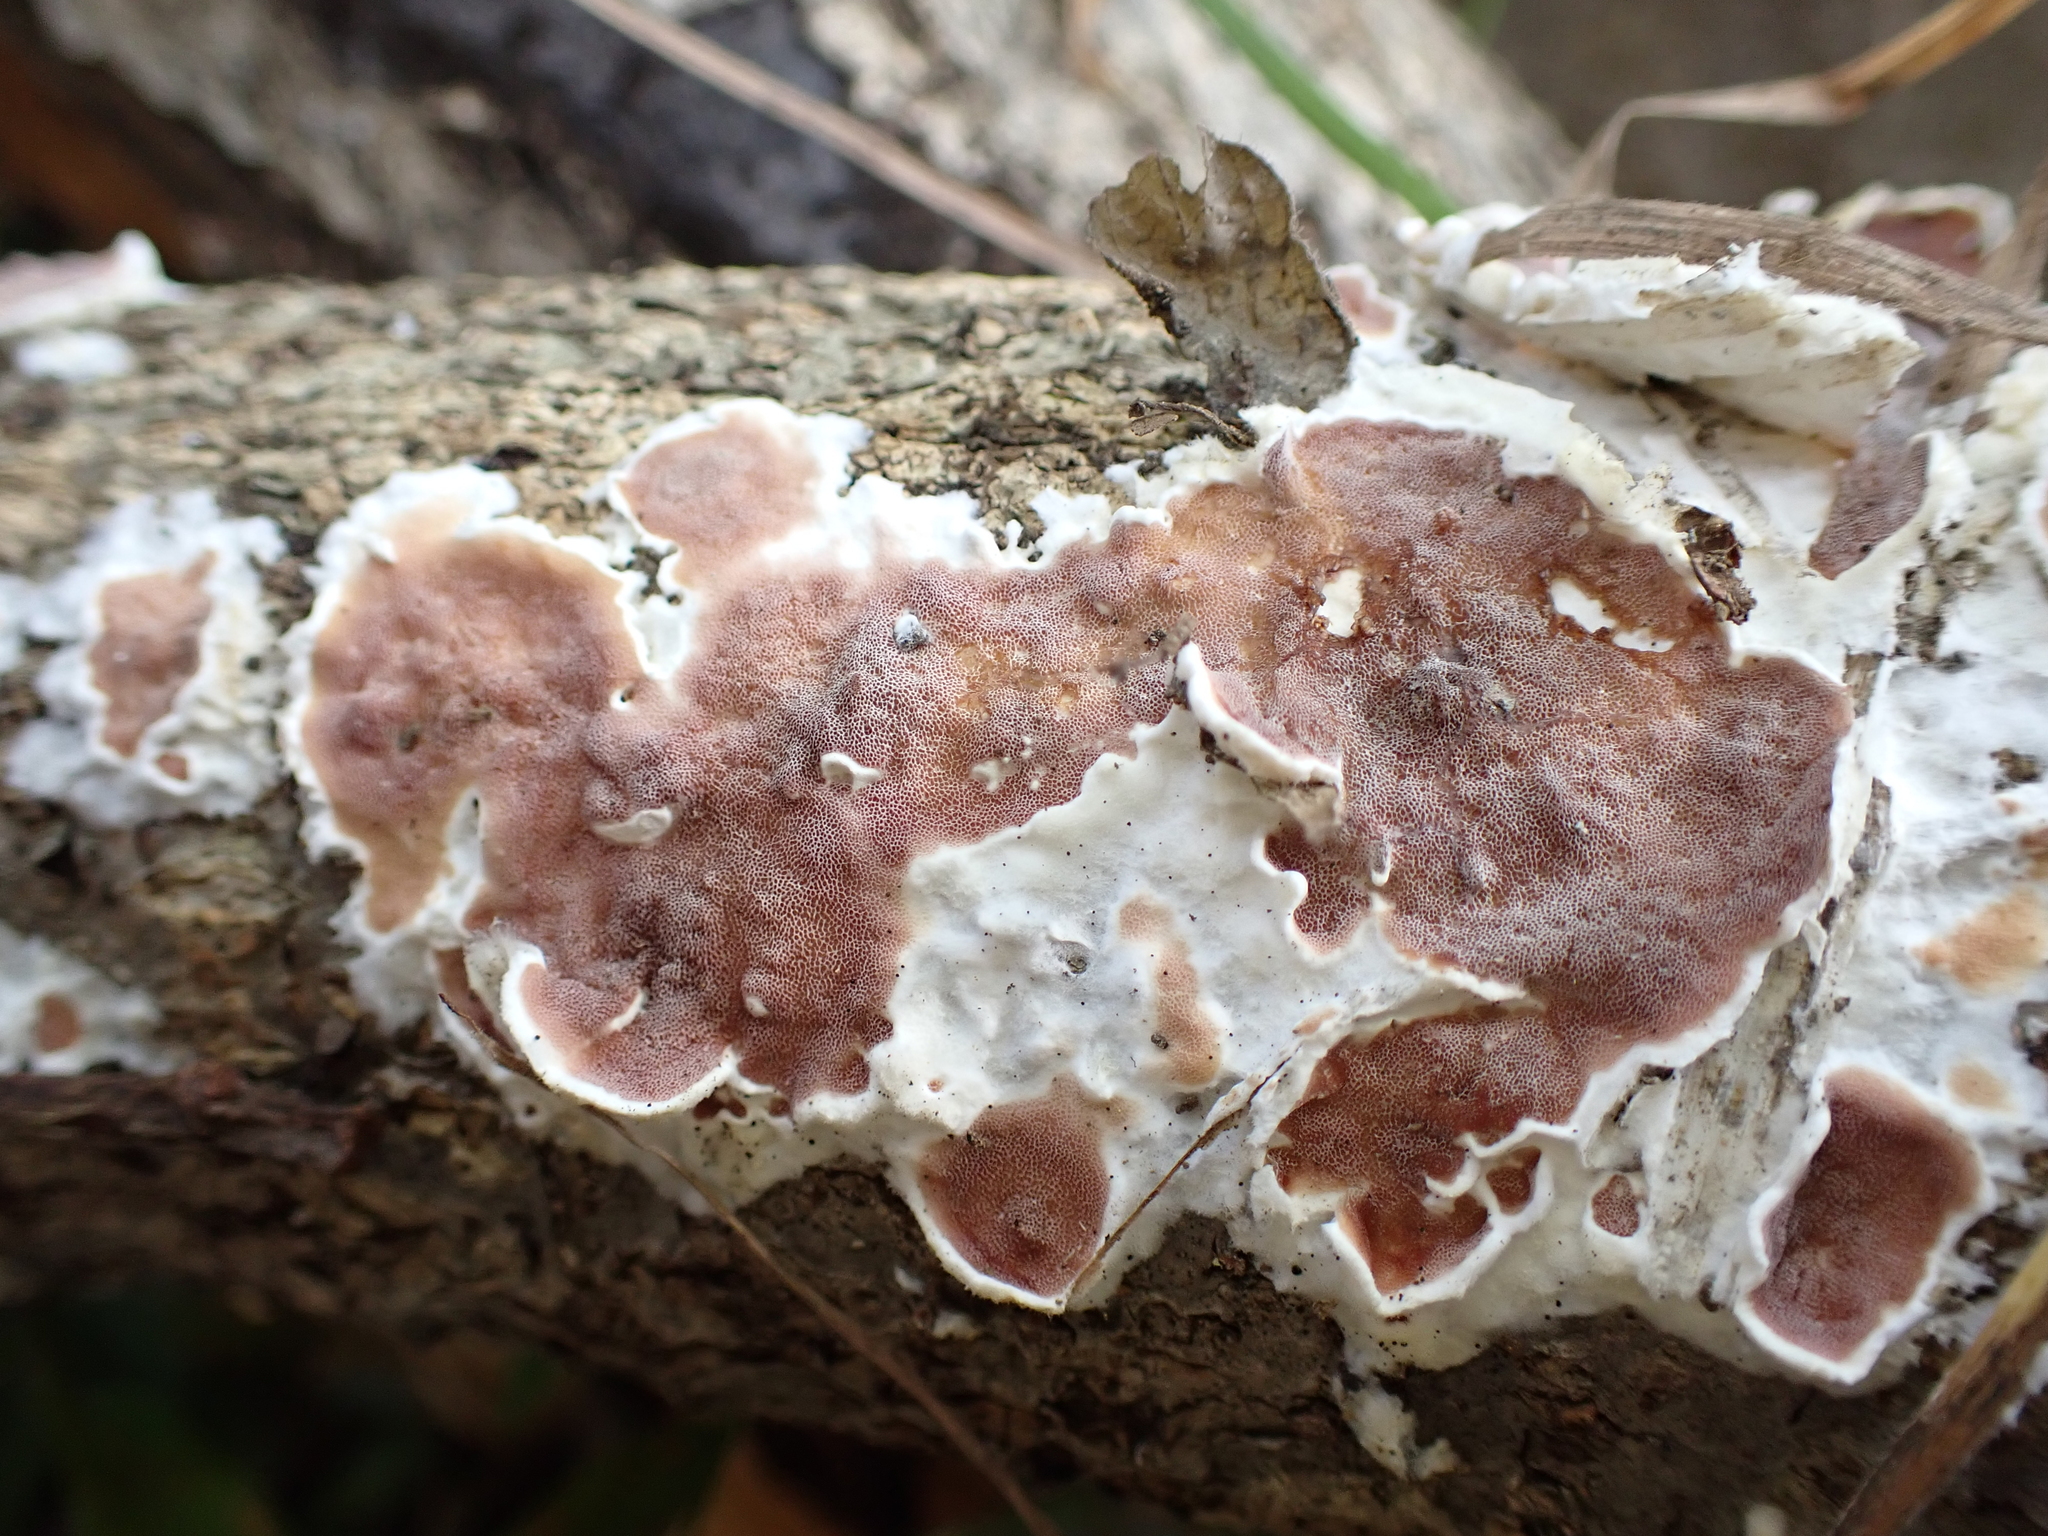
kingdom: Fungi
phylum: Basidiomycota
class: Agaricomycetes
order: Polyporales
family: Irpicaceae
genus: Vitreoporus
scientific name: Vitreoporus dichrous
